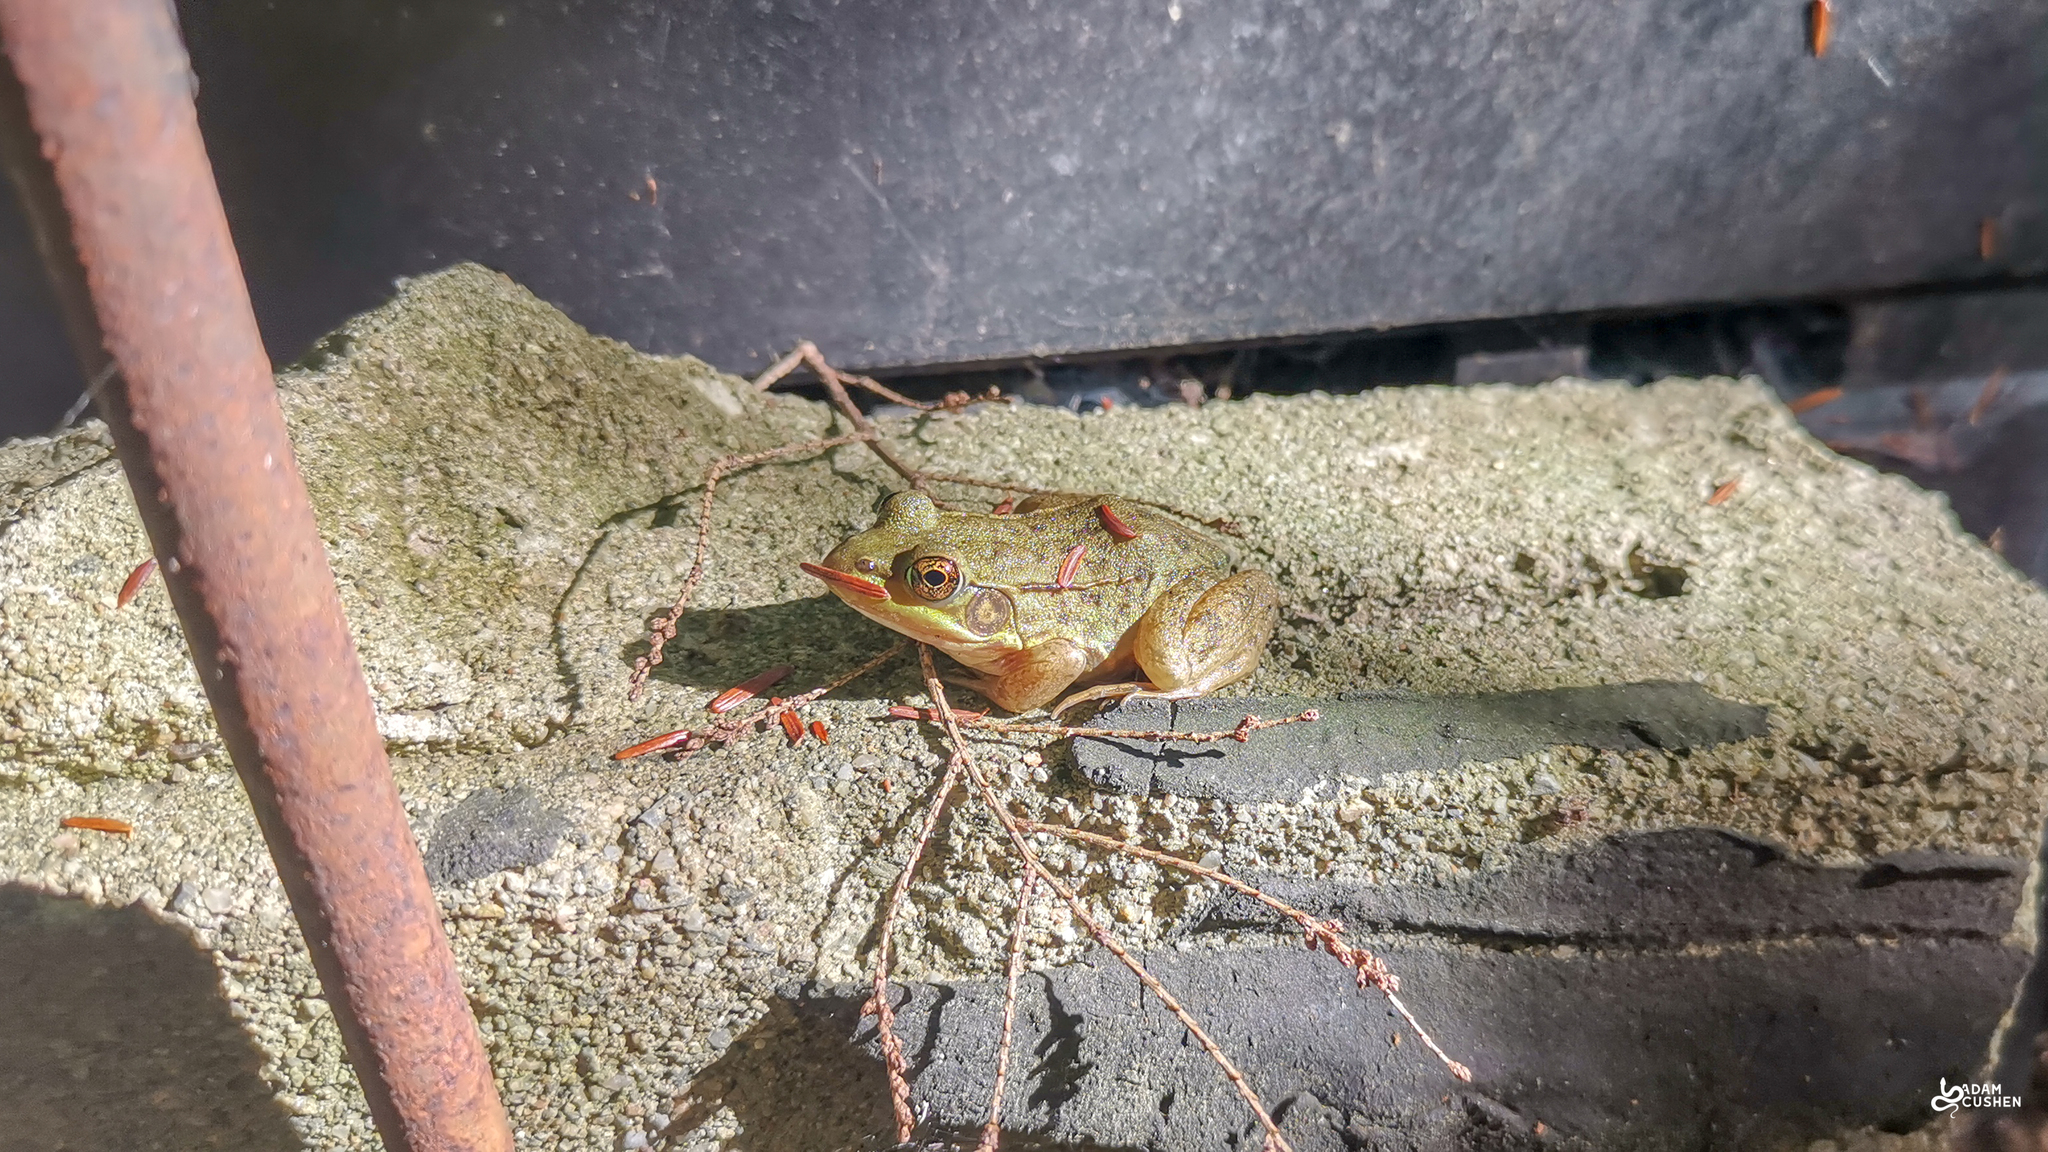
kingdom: Animalia
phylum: Chordata
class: Amphibia
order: Anura
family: Ranidae
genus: Lithobates
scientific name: Lithobates clamitans
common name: Green frog
